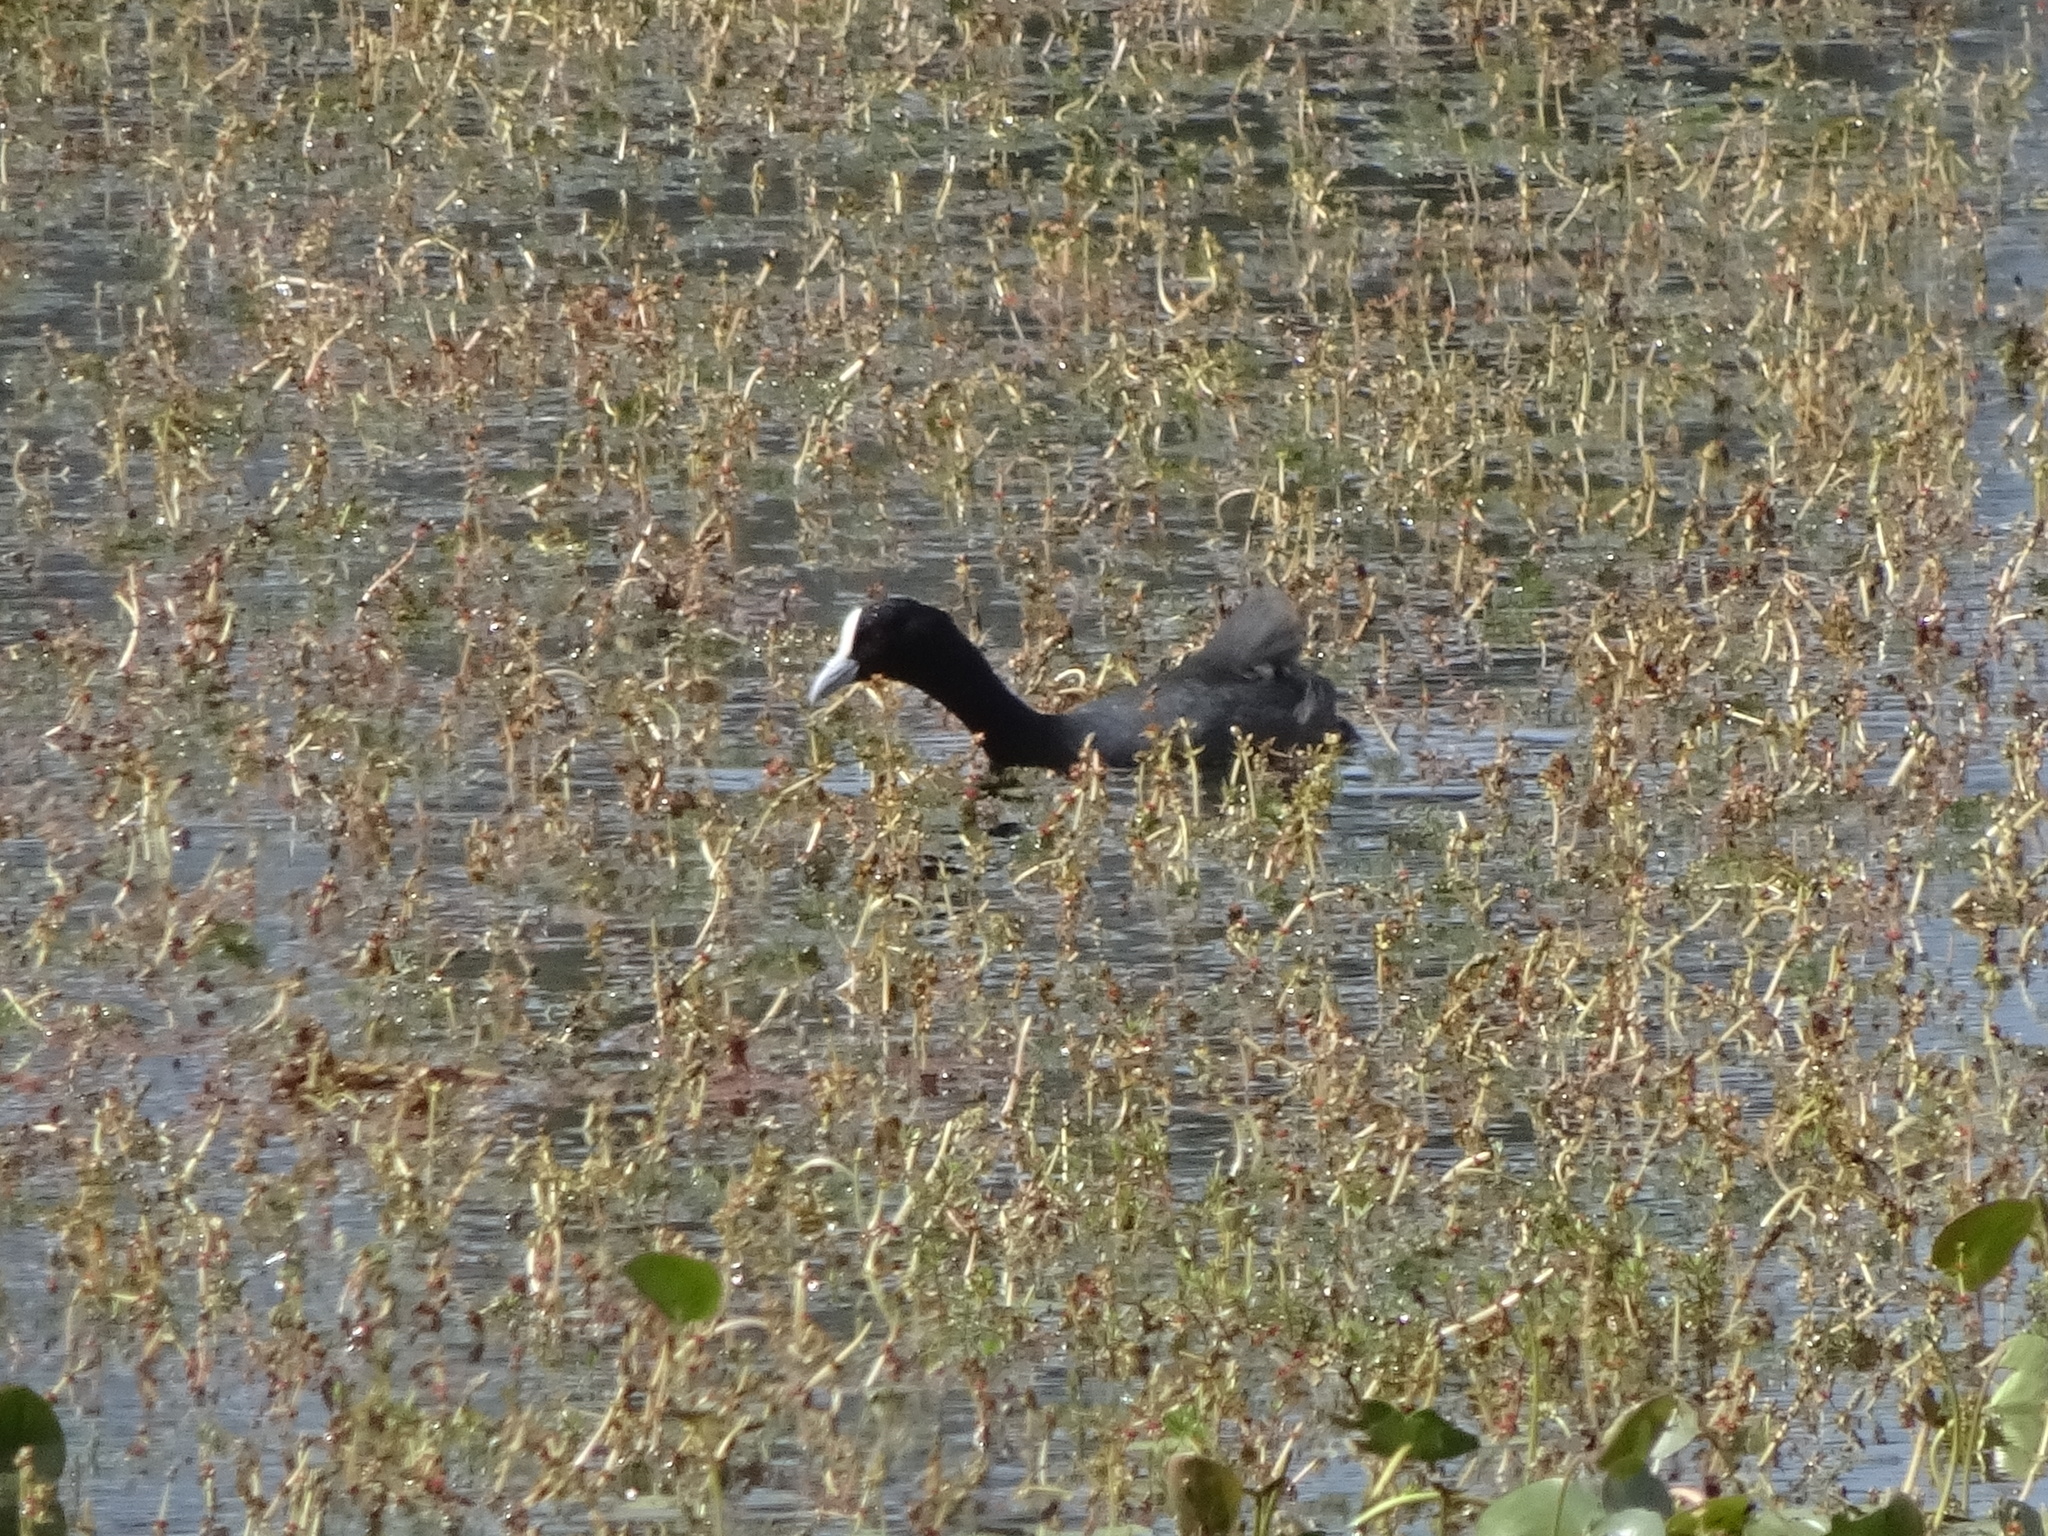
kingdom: Animalia
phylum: Chordata
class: Aves
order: Gruiformes
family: Rallidae
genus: Fulica
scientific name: Fulica atra
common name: Eurasian coot
